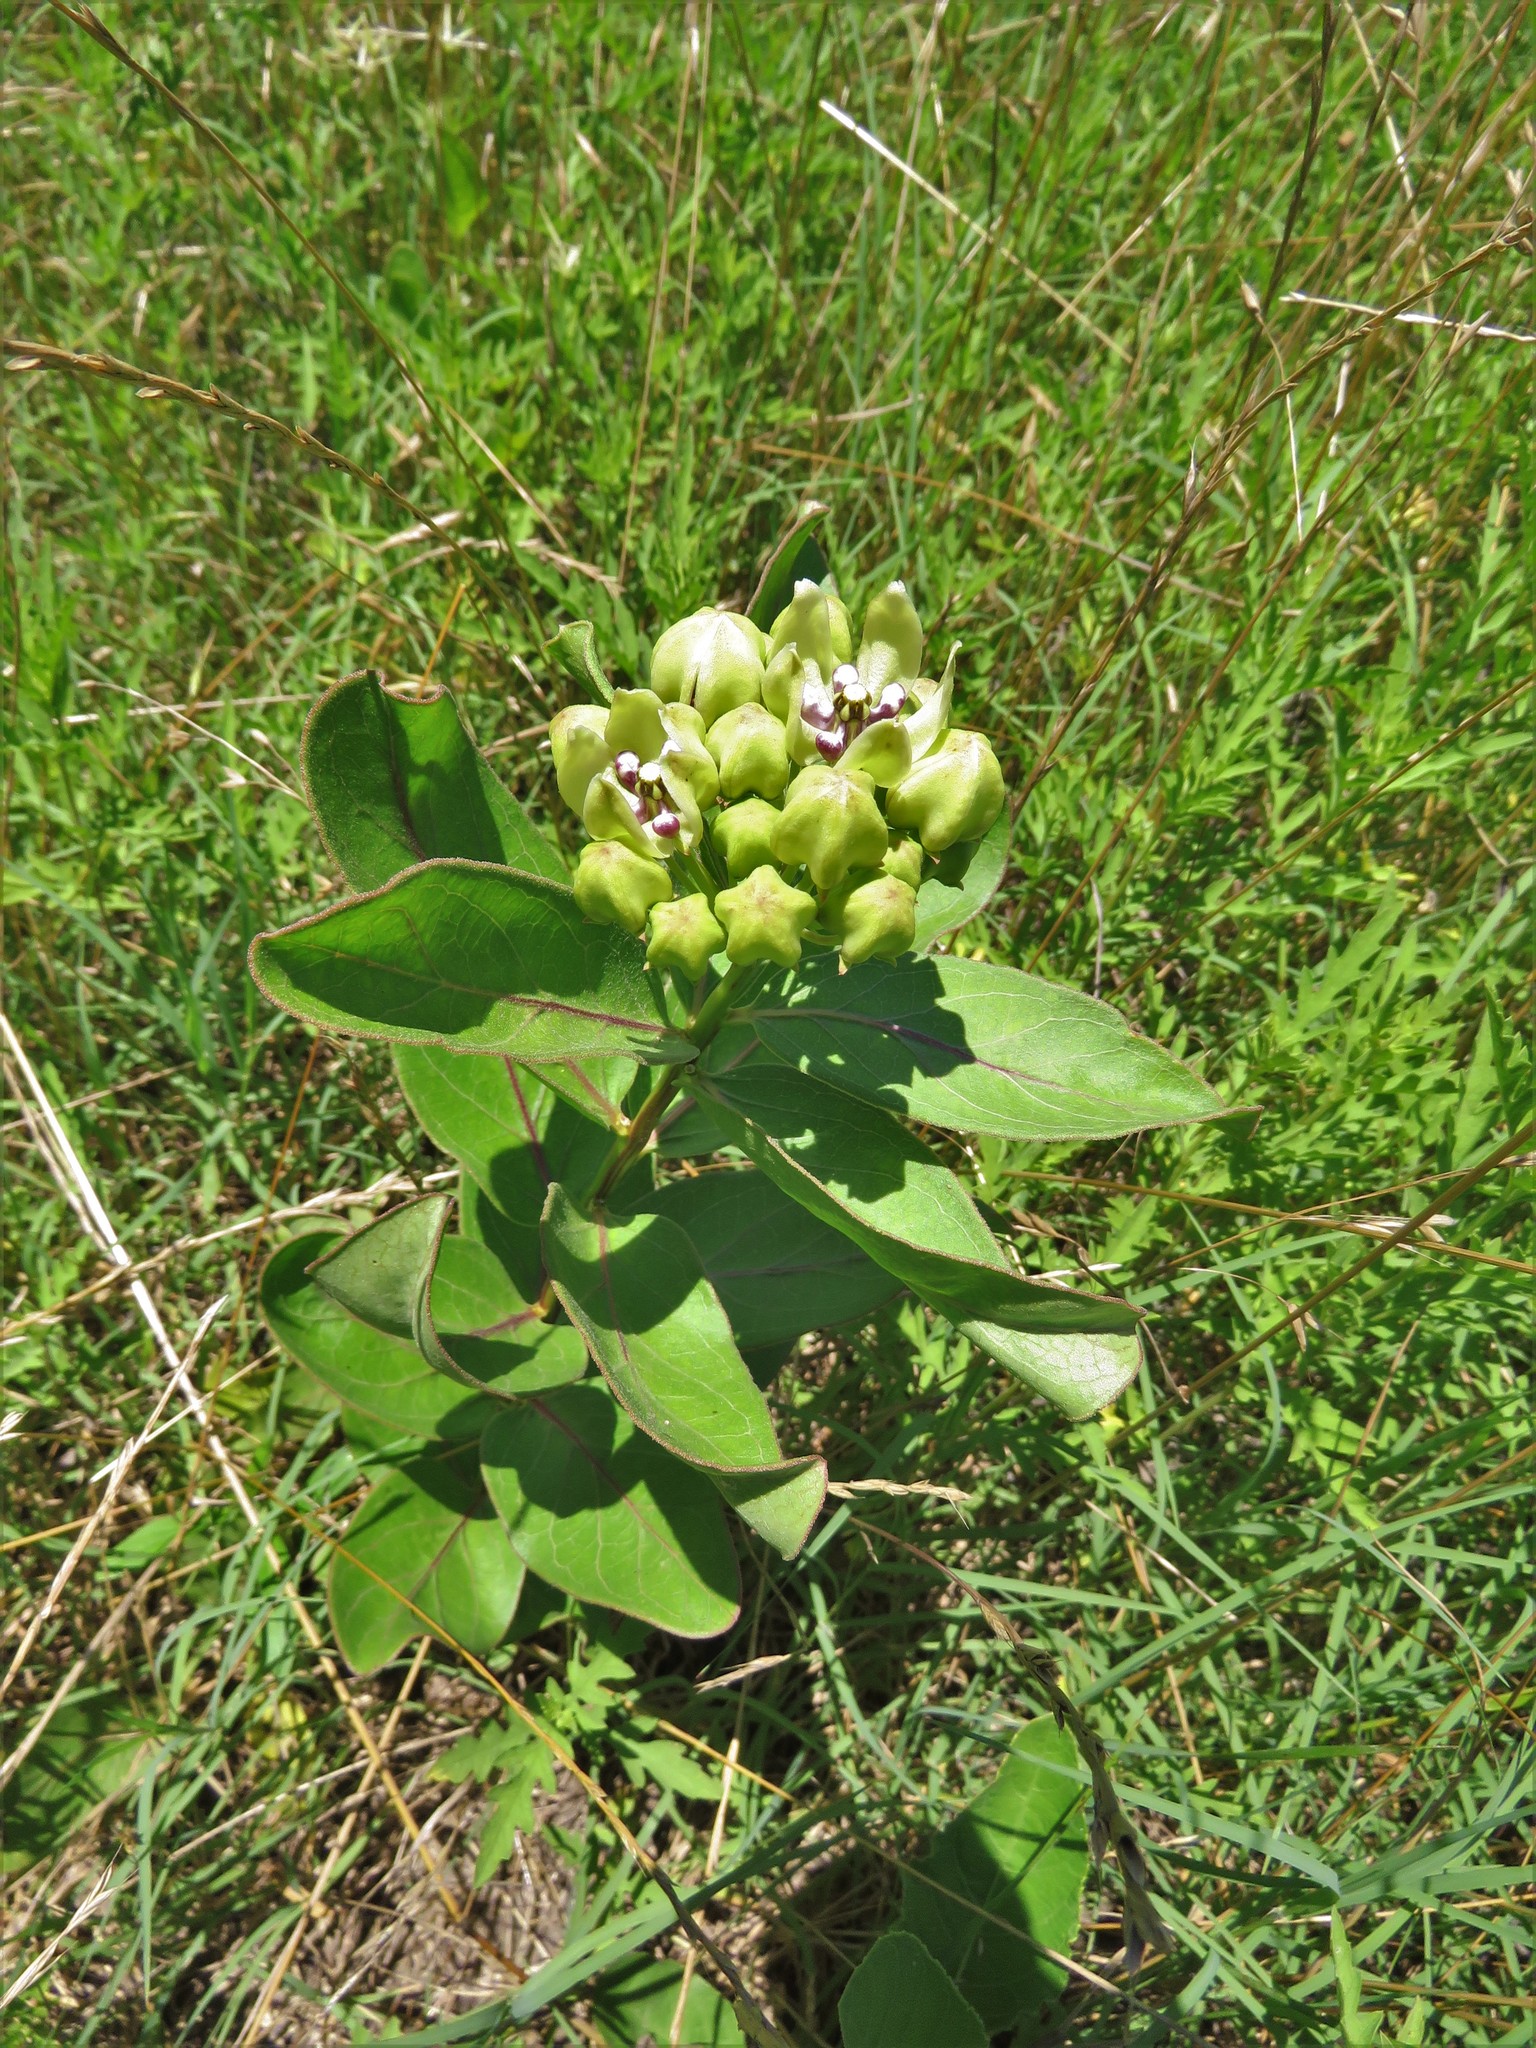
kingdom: Plantae
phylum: Tracheophyta
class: Magnoliopsida
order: Gentianales
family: Apocynaceae
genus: Asclepias
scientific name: Asclepias viridis
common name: Antelope-horns
